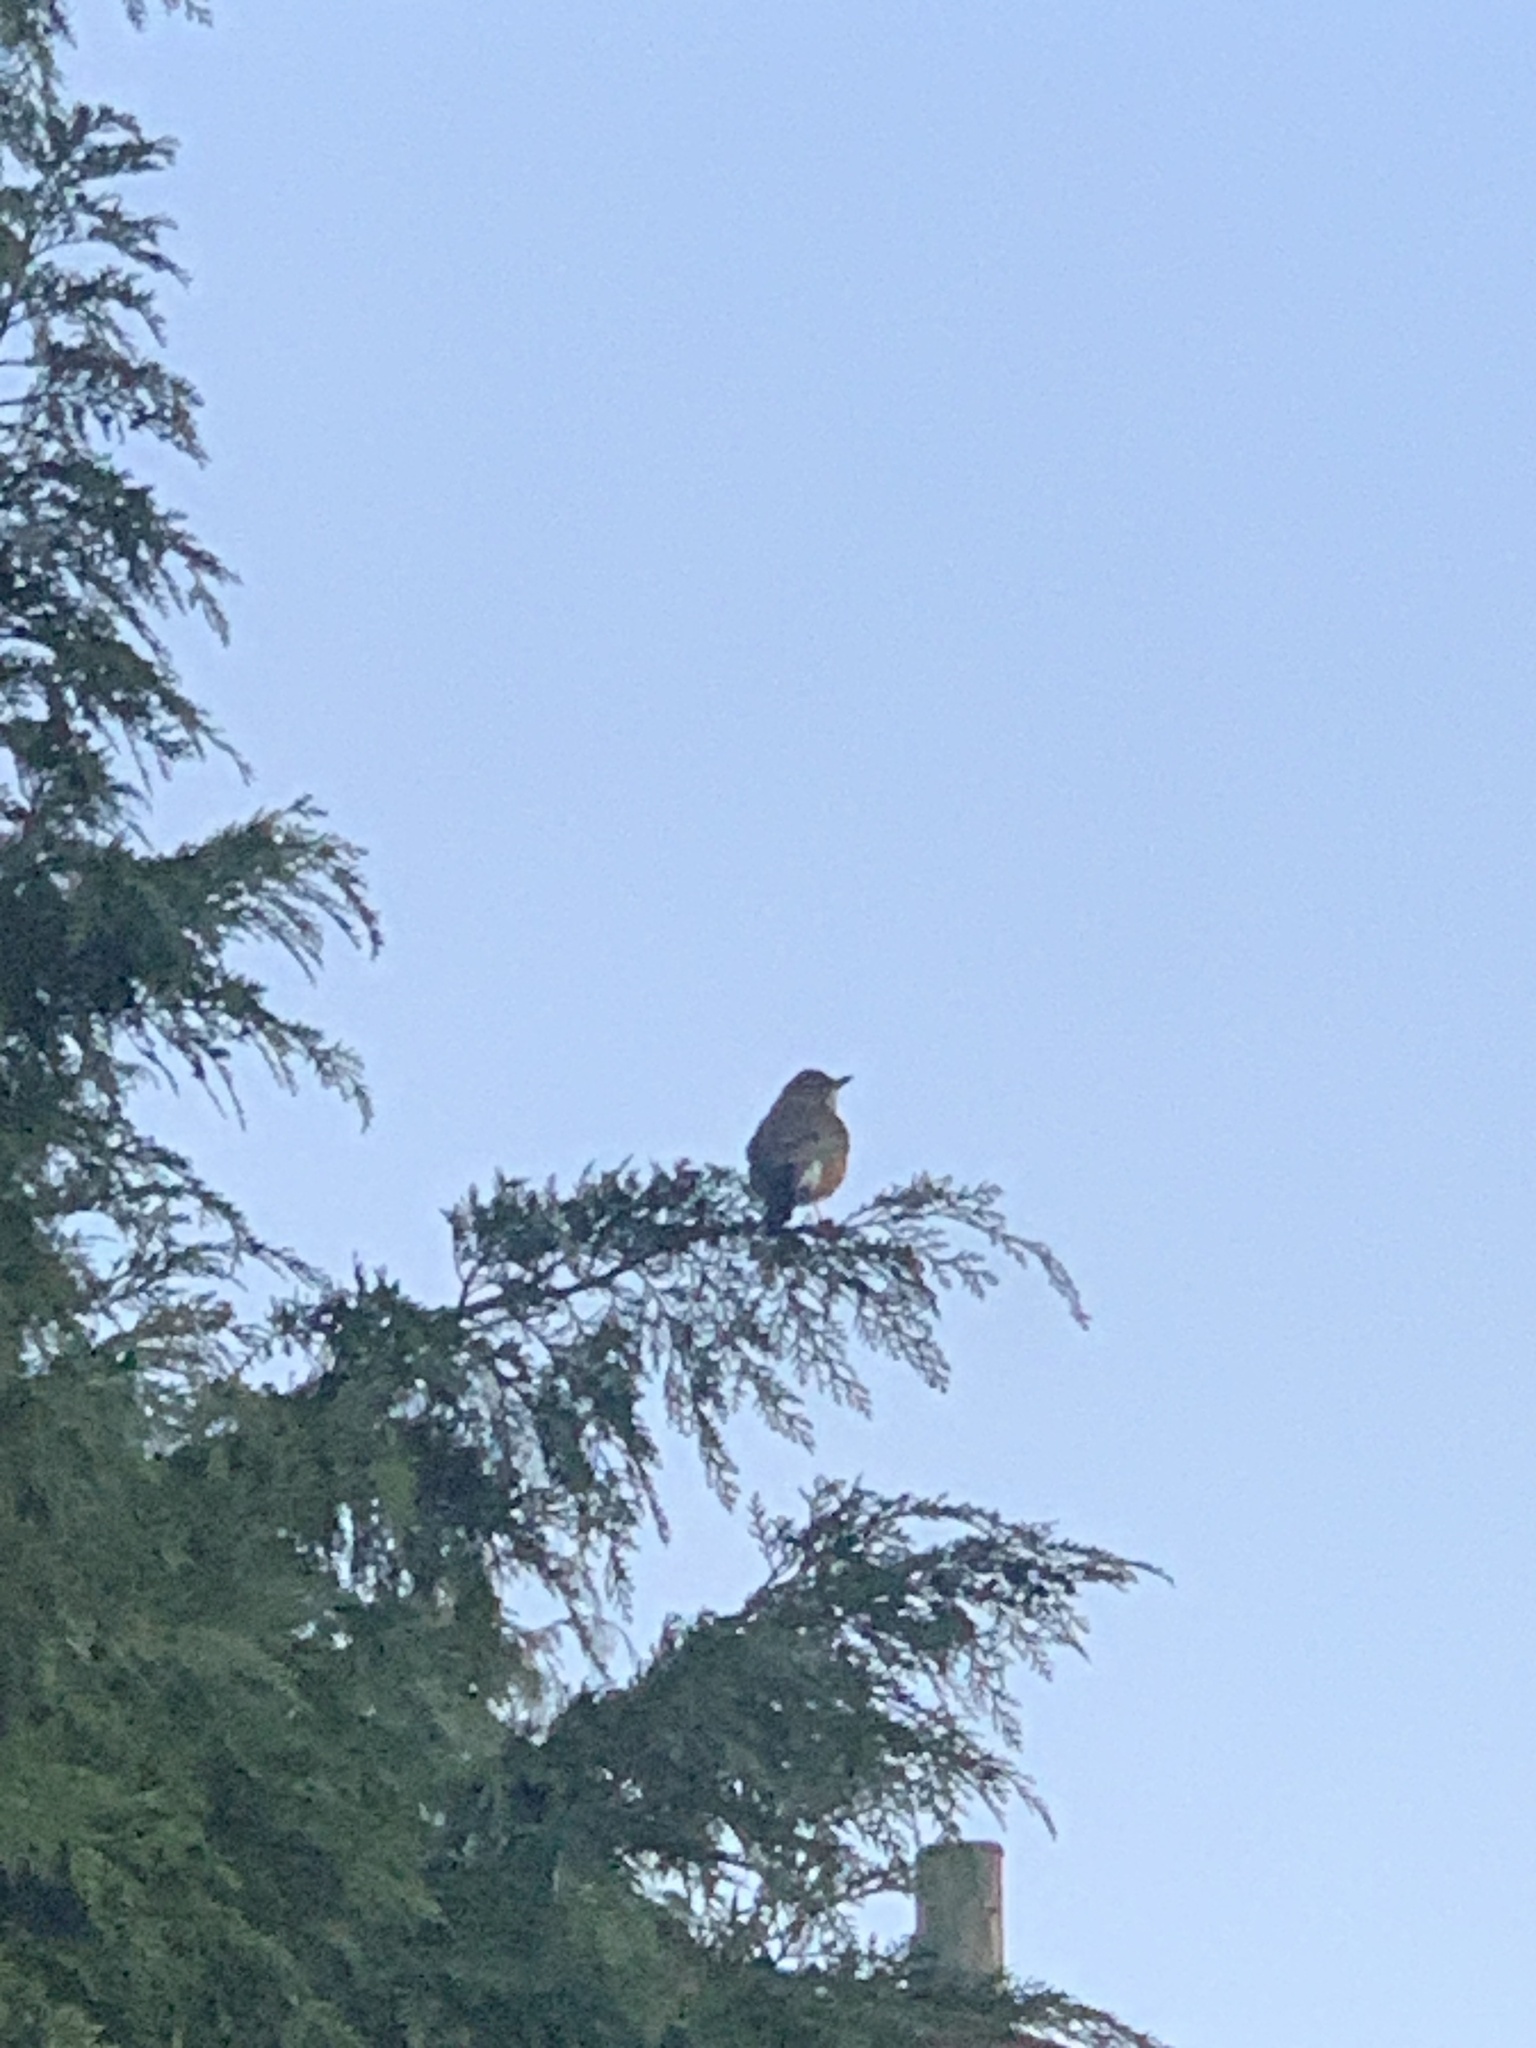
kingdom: Animalia
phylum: Chordata
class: Aves
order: Passeriformes
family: Turdidae
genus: Turdus
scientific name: Turdus migratorius
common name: American robin
